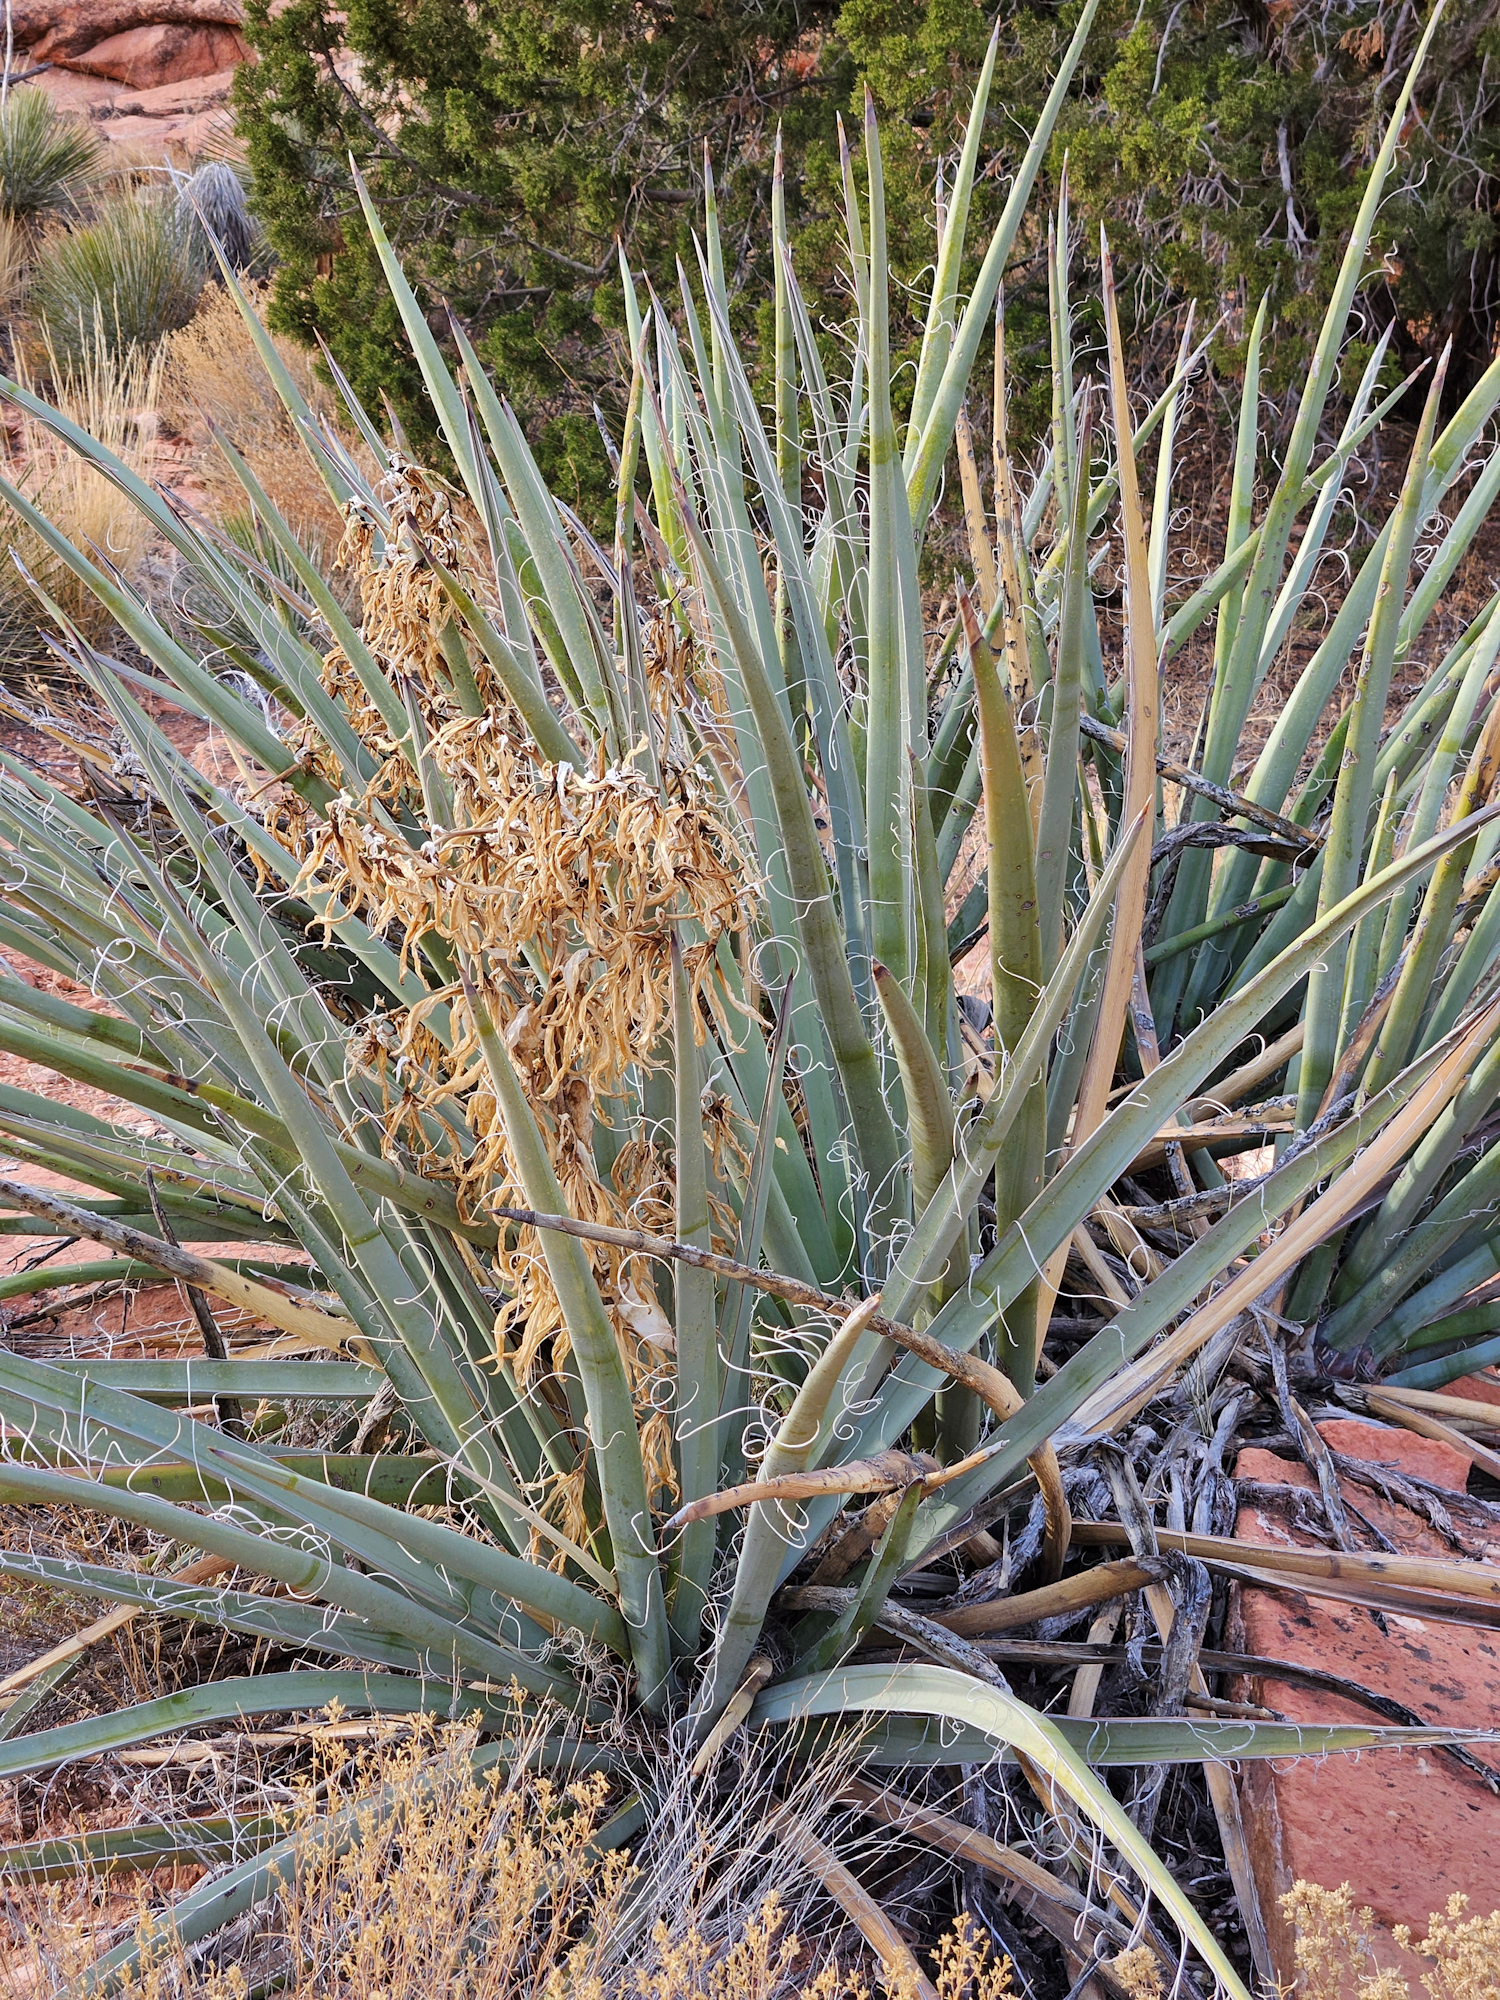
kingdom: Plantae
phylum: Tracheophyta
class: Liliopsida
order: Asparagales
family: Asparagaceae
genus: Yucca
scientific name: Yucca baccata
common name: Banana yucca
